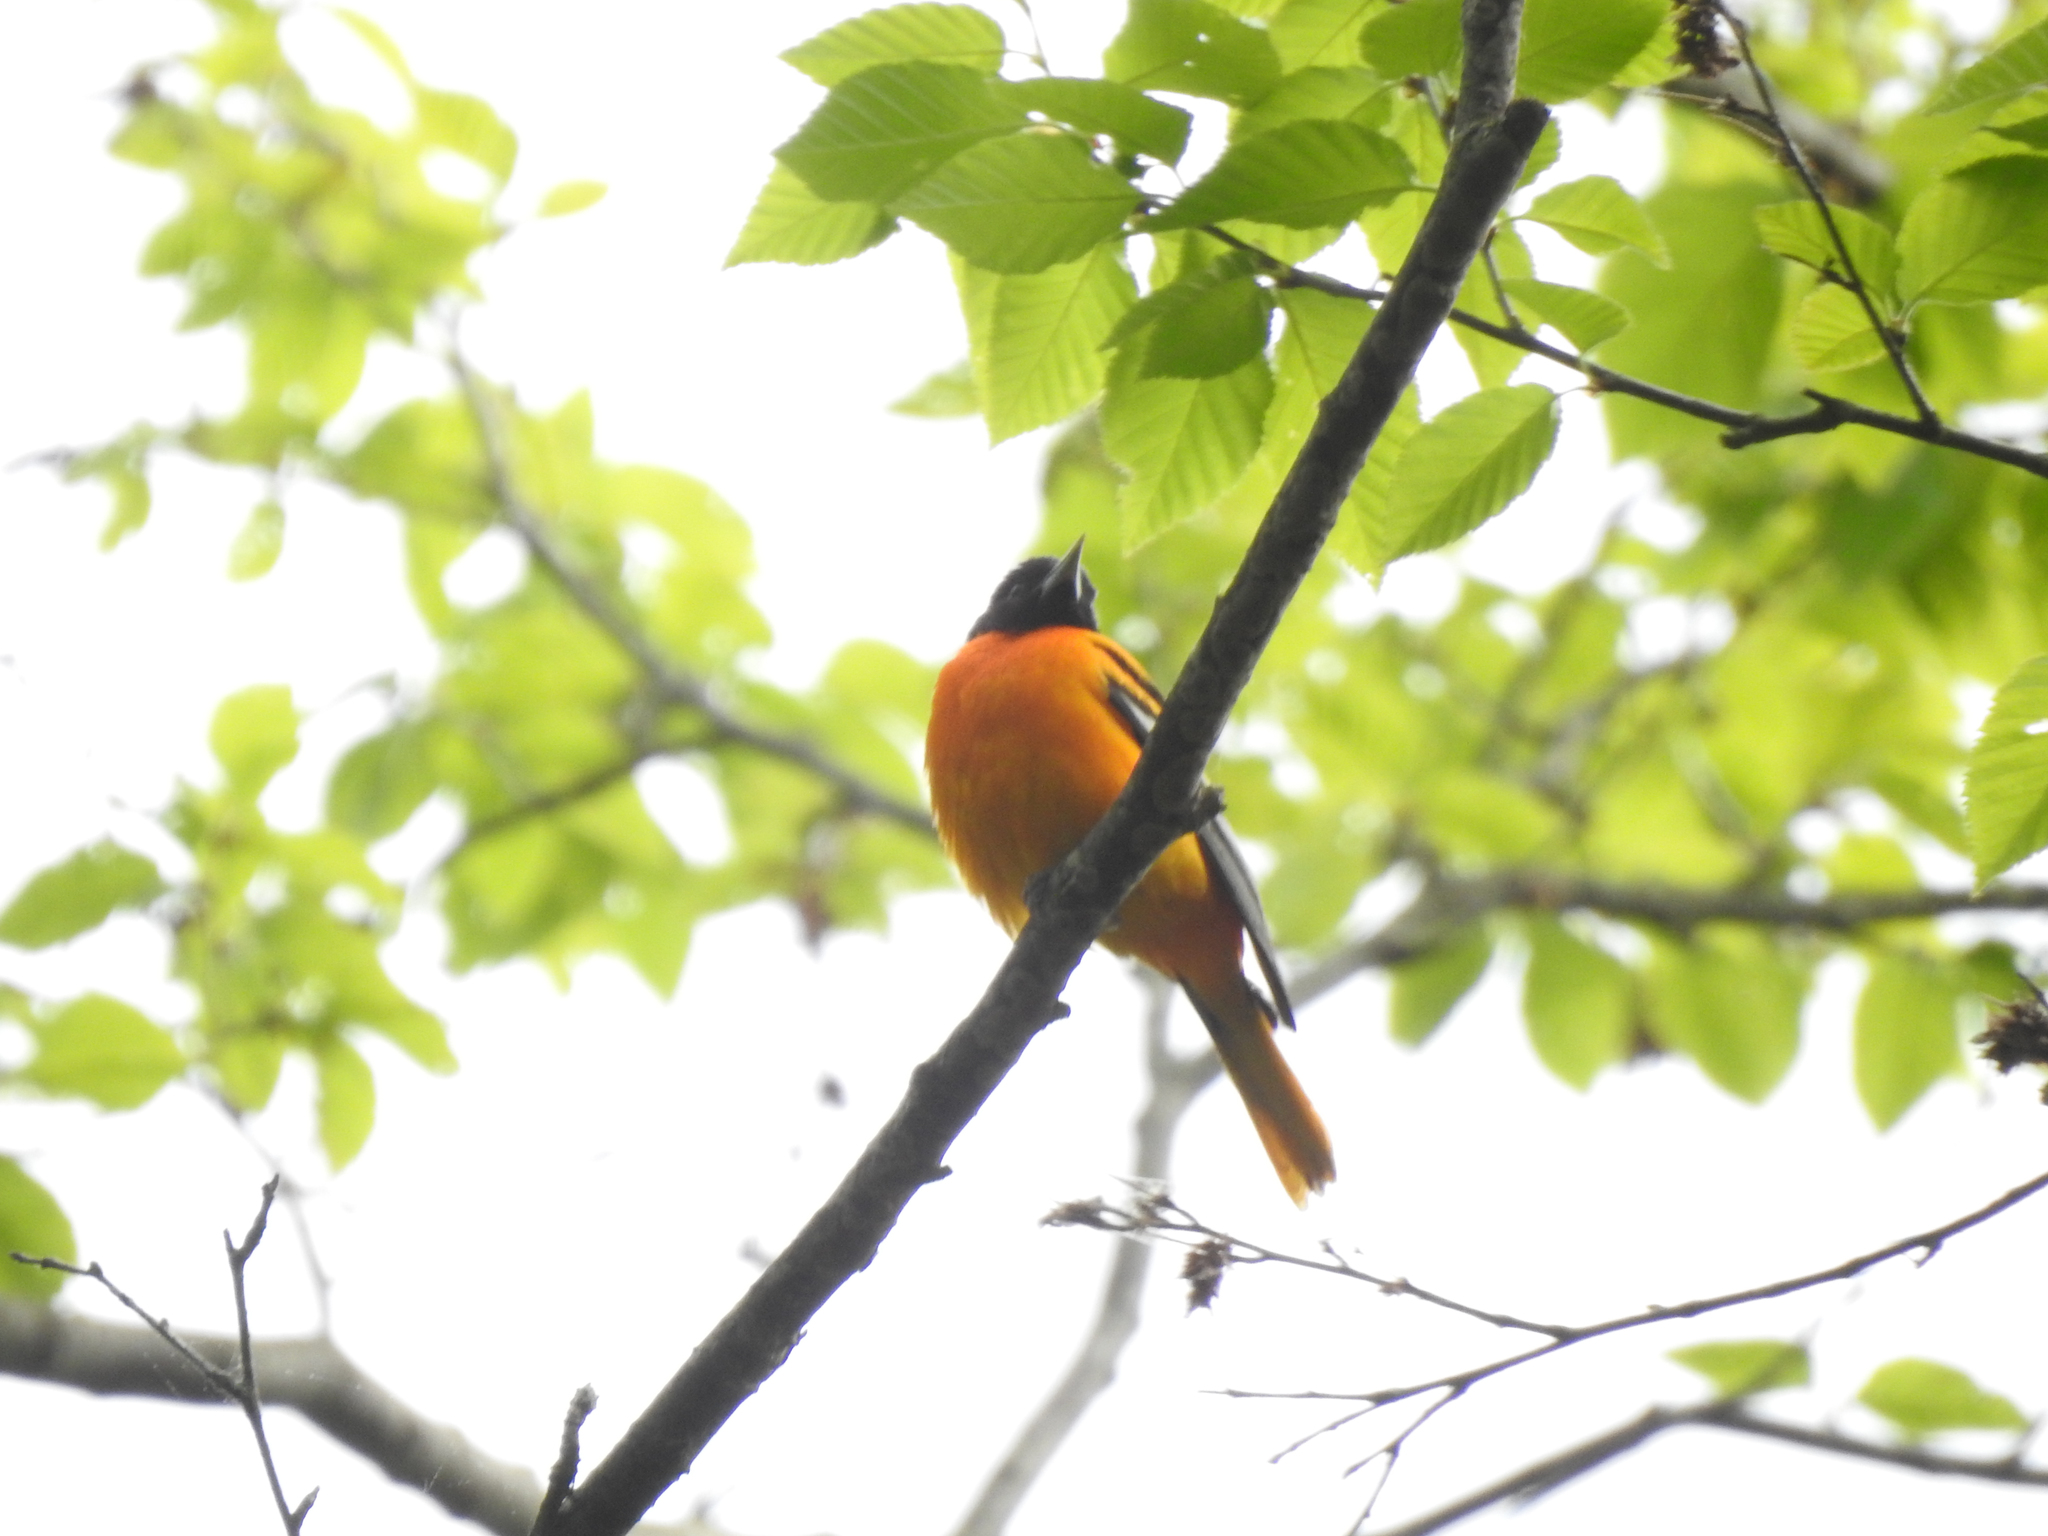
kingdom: Animalia
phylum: Chordata
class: Aves
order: Passeriformes
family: Icteridae
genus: Icterus
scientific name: Icterus galbula
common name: Baltimore oriole
